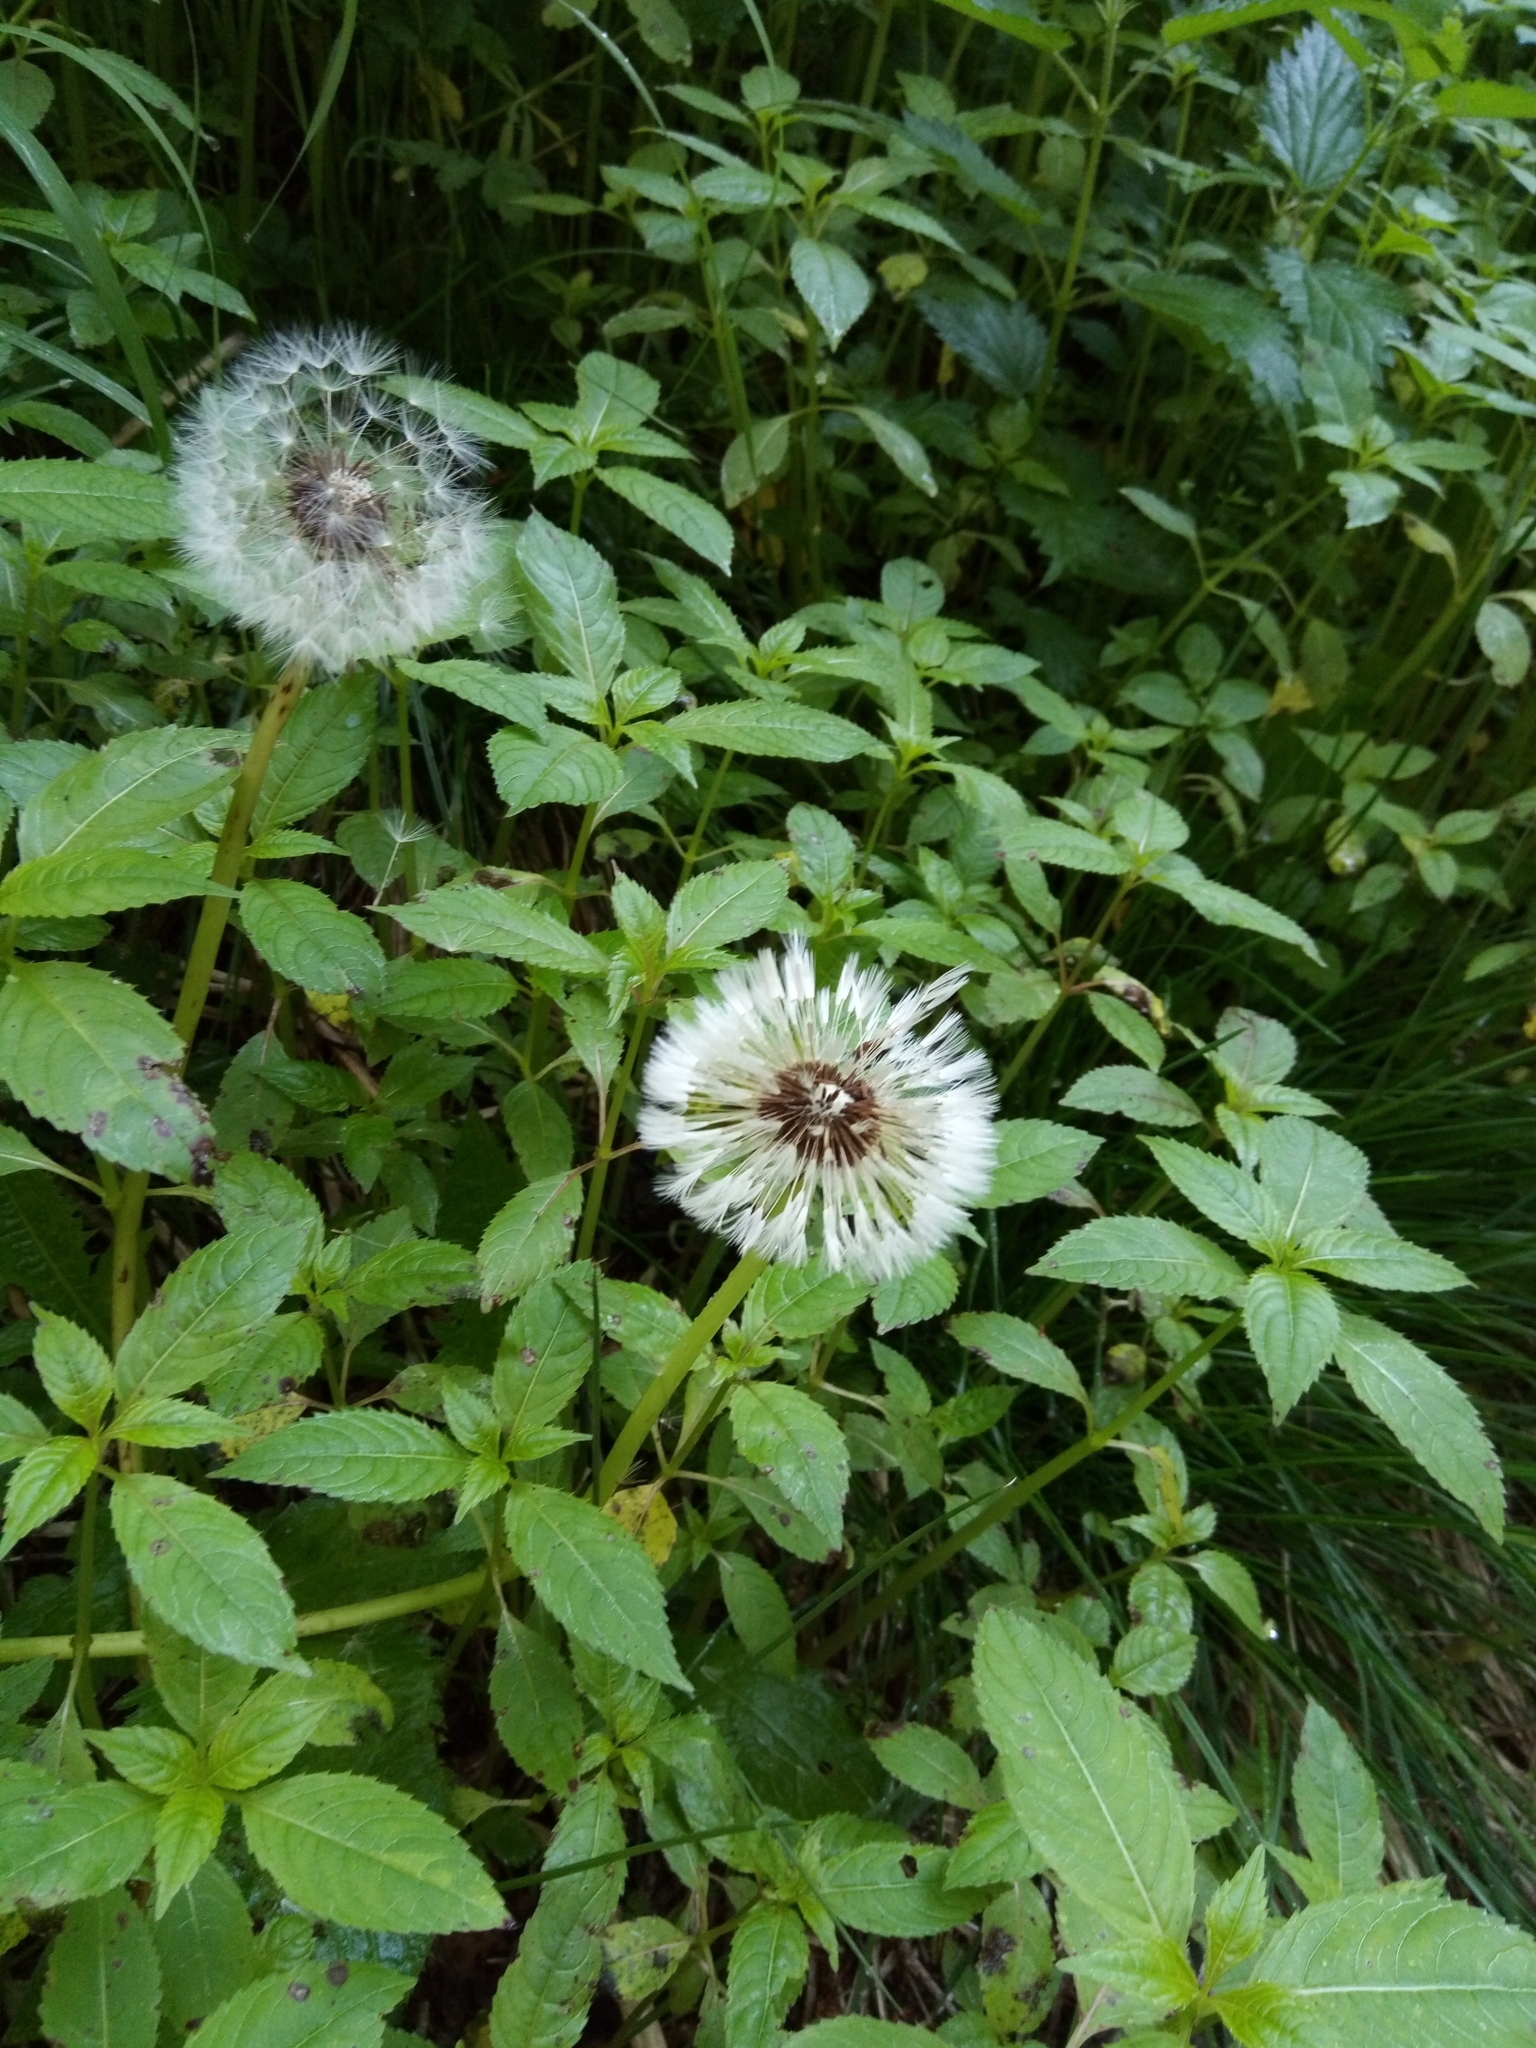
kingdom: Plantae
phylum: Tracheophyta
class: Magnoliopsida
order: Asterales
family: Asteraceae
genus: Taraxacum
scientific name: Taraxacum officinale
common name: Common dandelion
